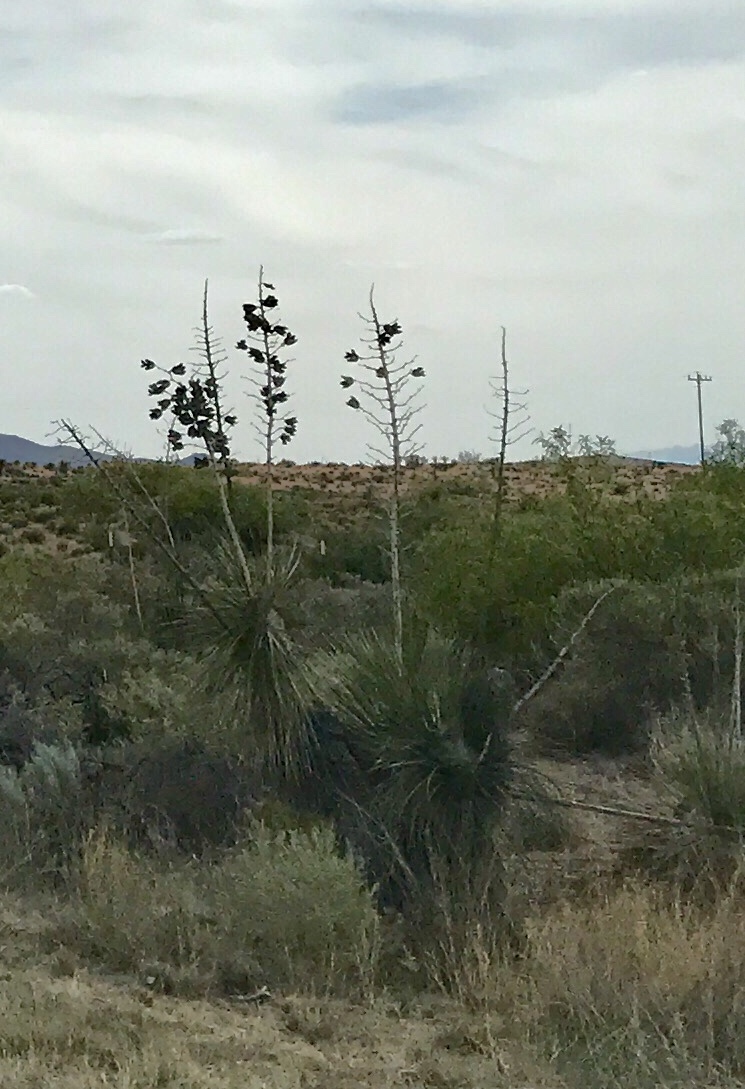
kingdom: Plantae
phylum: Tracheophyta
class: Liliopsida
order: Asparagales
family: Asparagaceae
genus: Yucca
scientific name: Yucca elata
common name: Palmella
